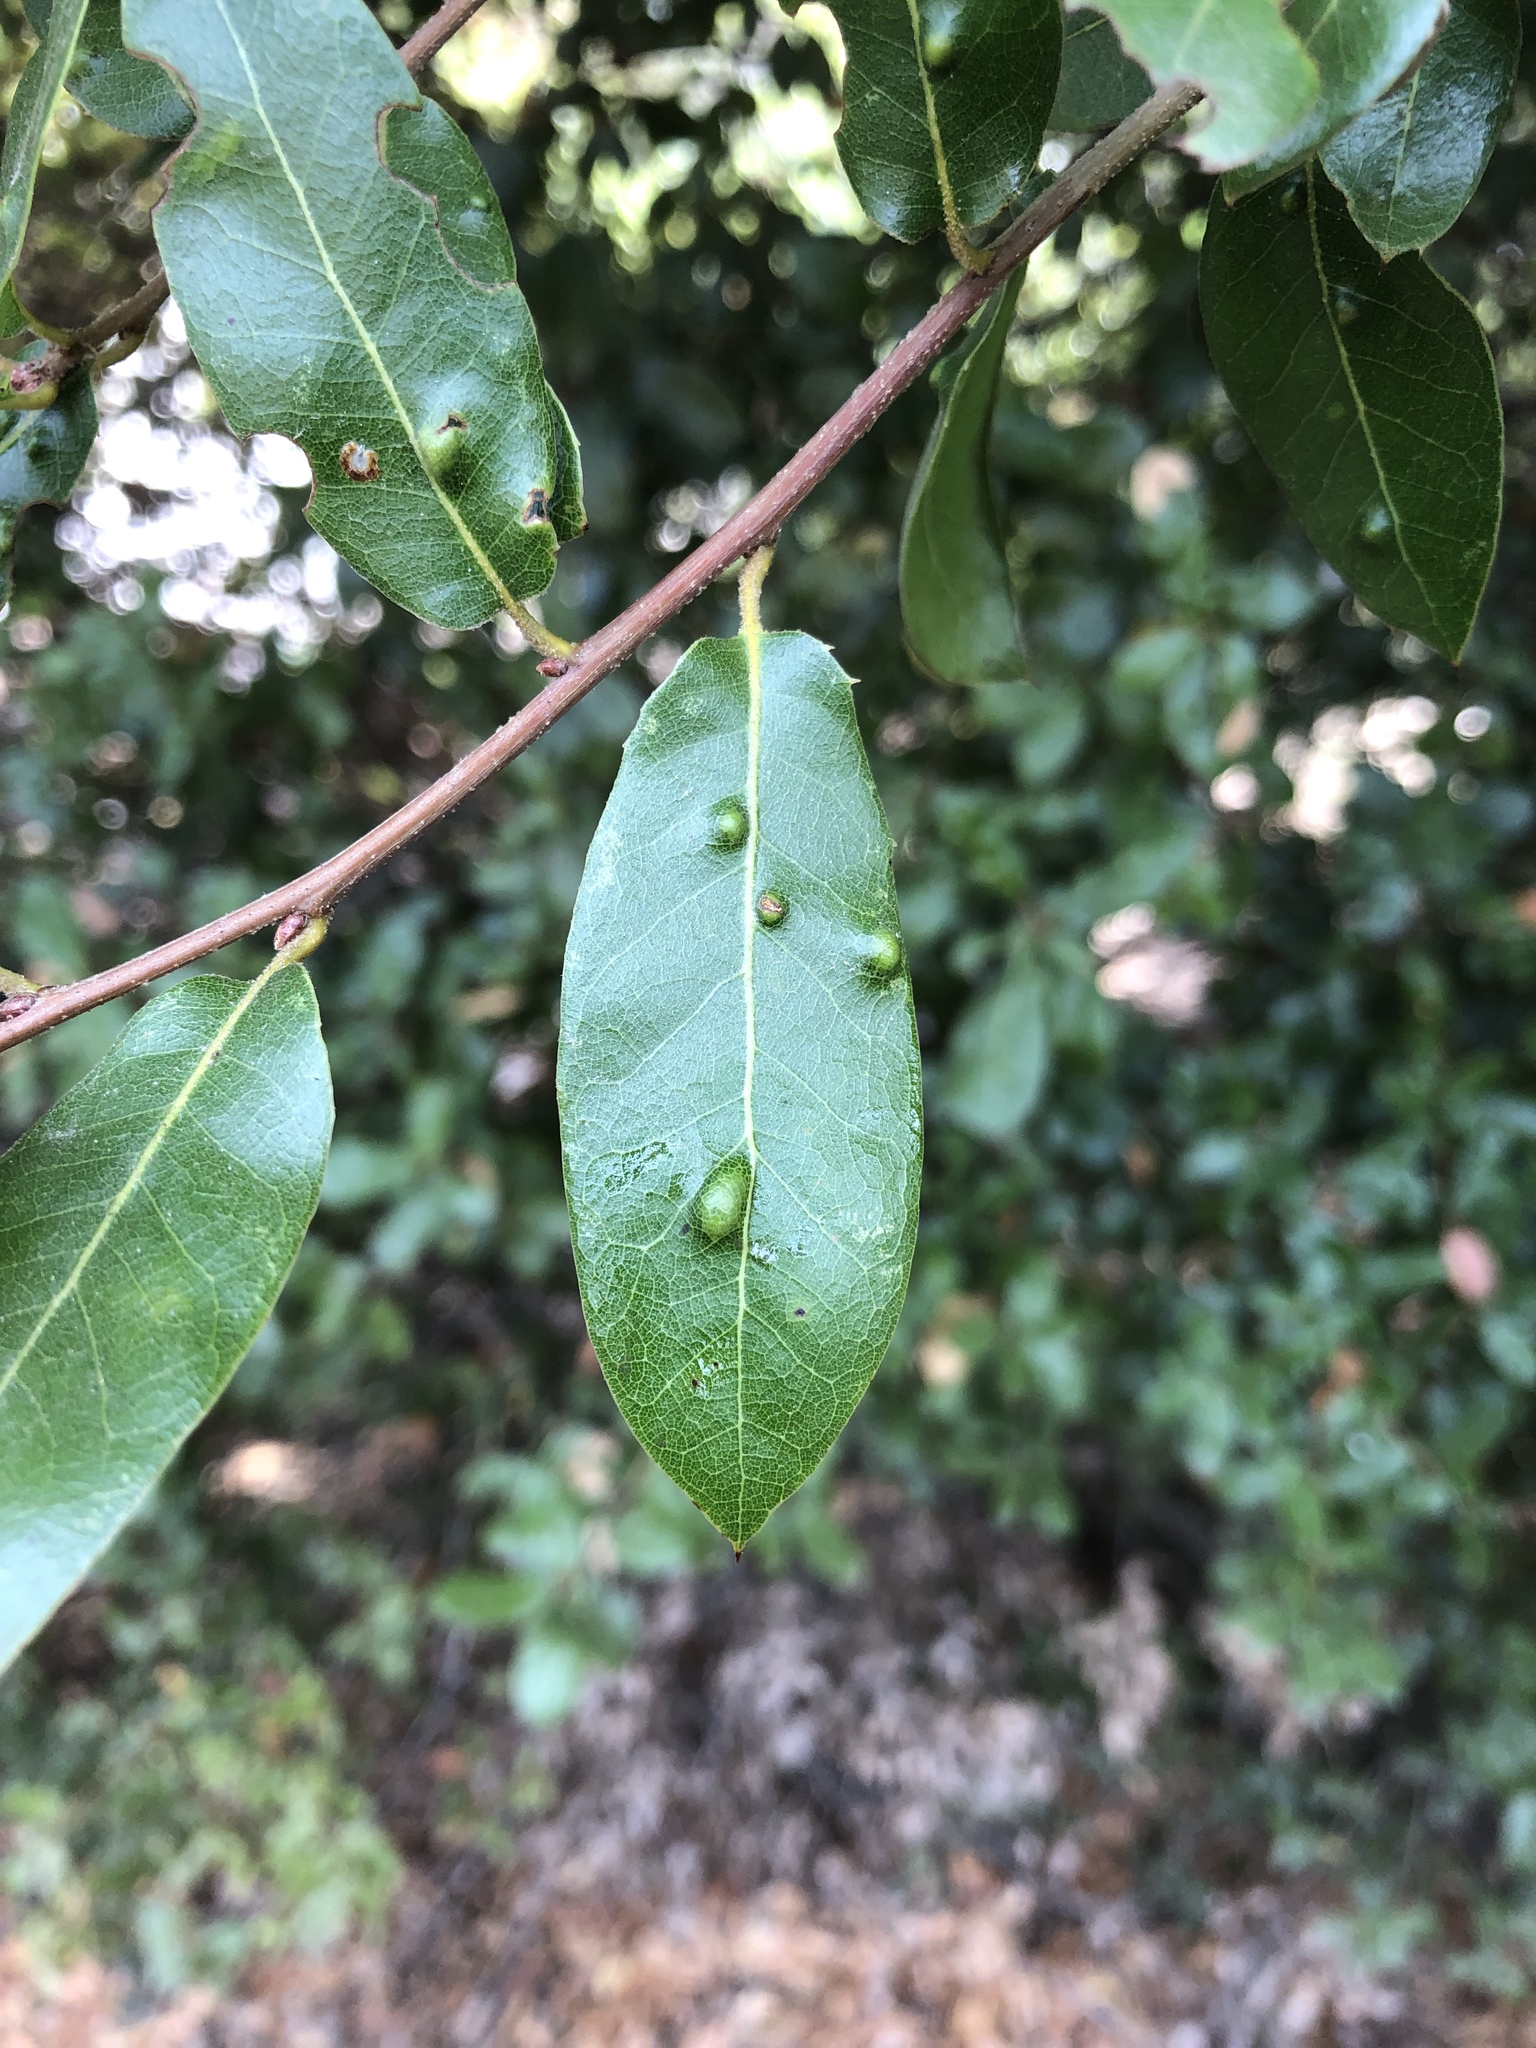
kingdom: Animalia
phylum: Arthropoda
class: Arachnida
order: Trombidiformes
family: Eriophyidae
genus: Aceria
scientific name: Aceria
